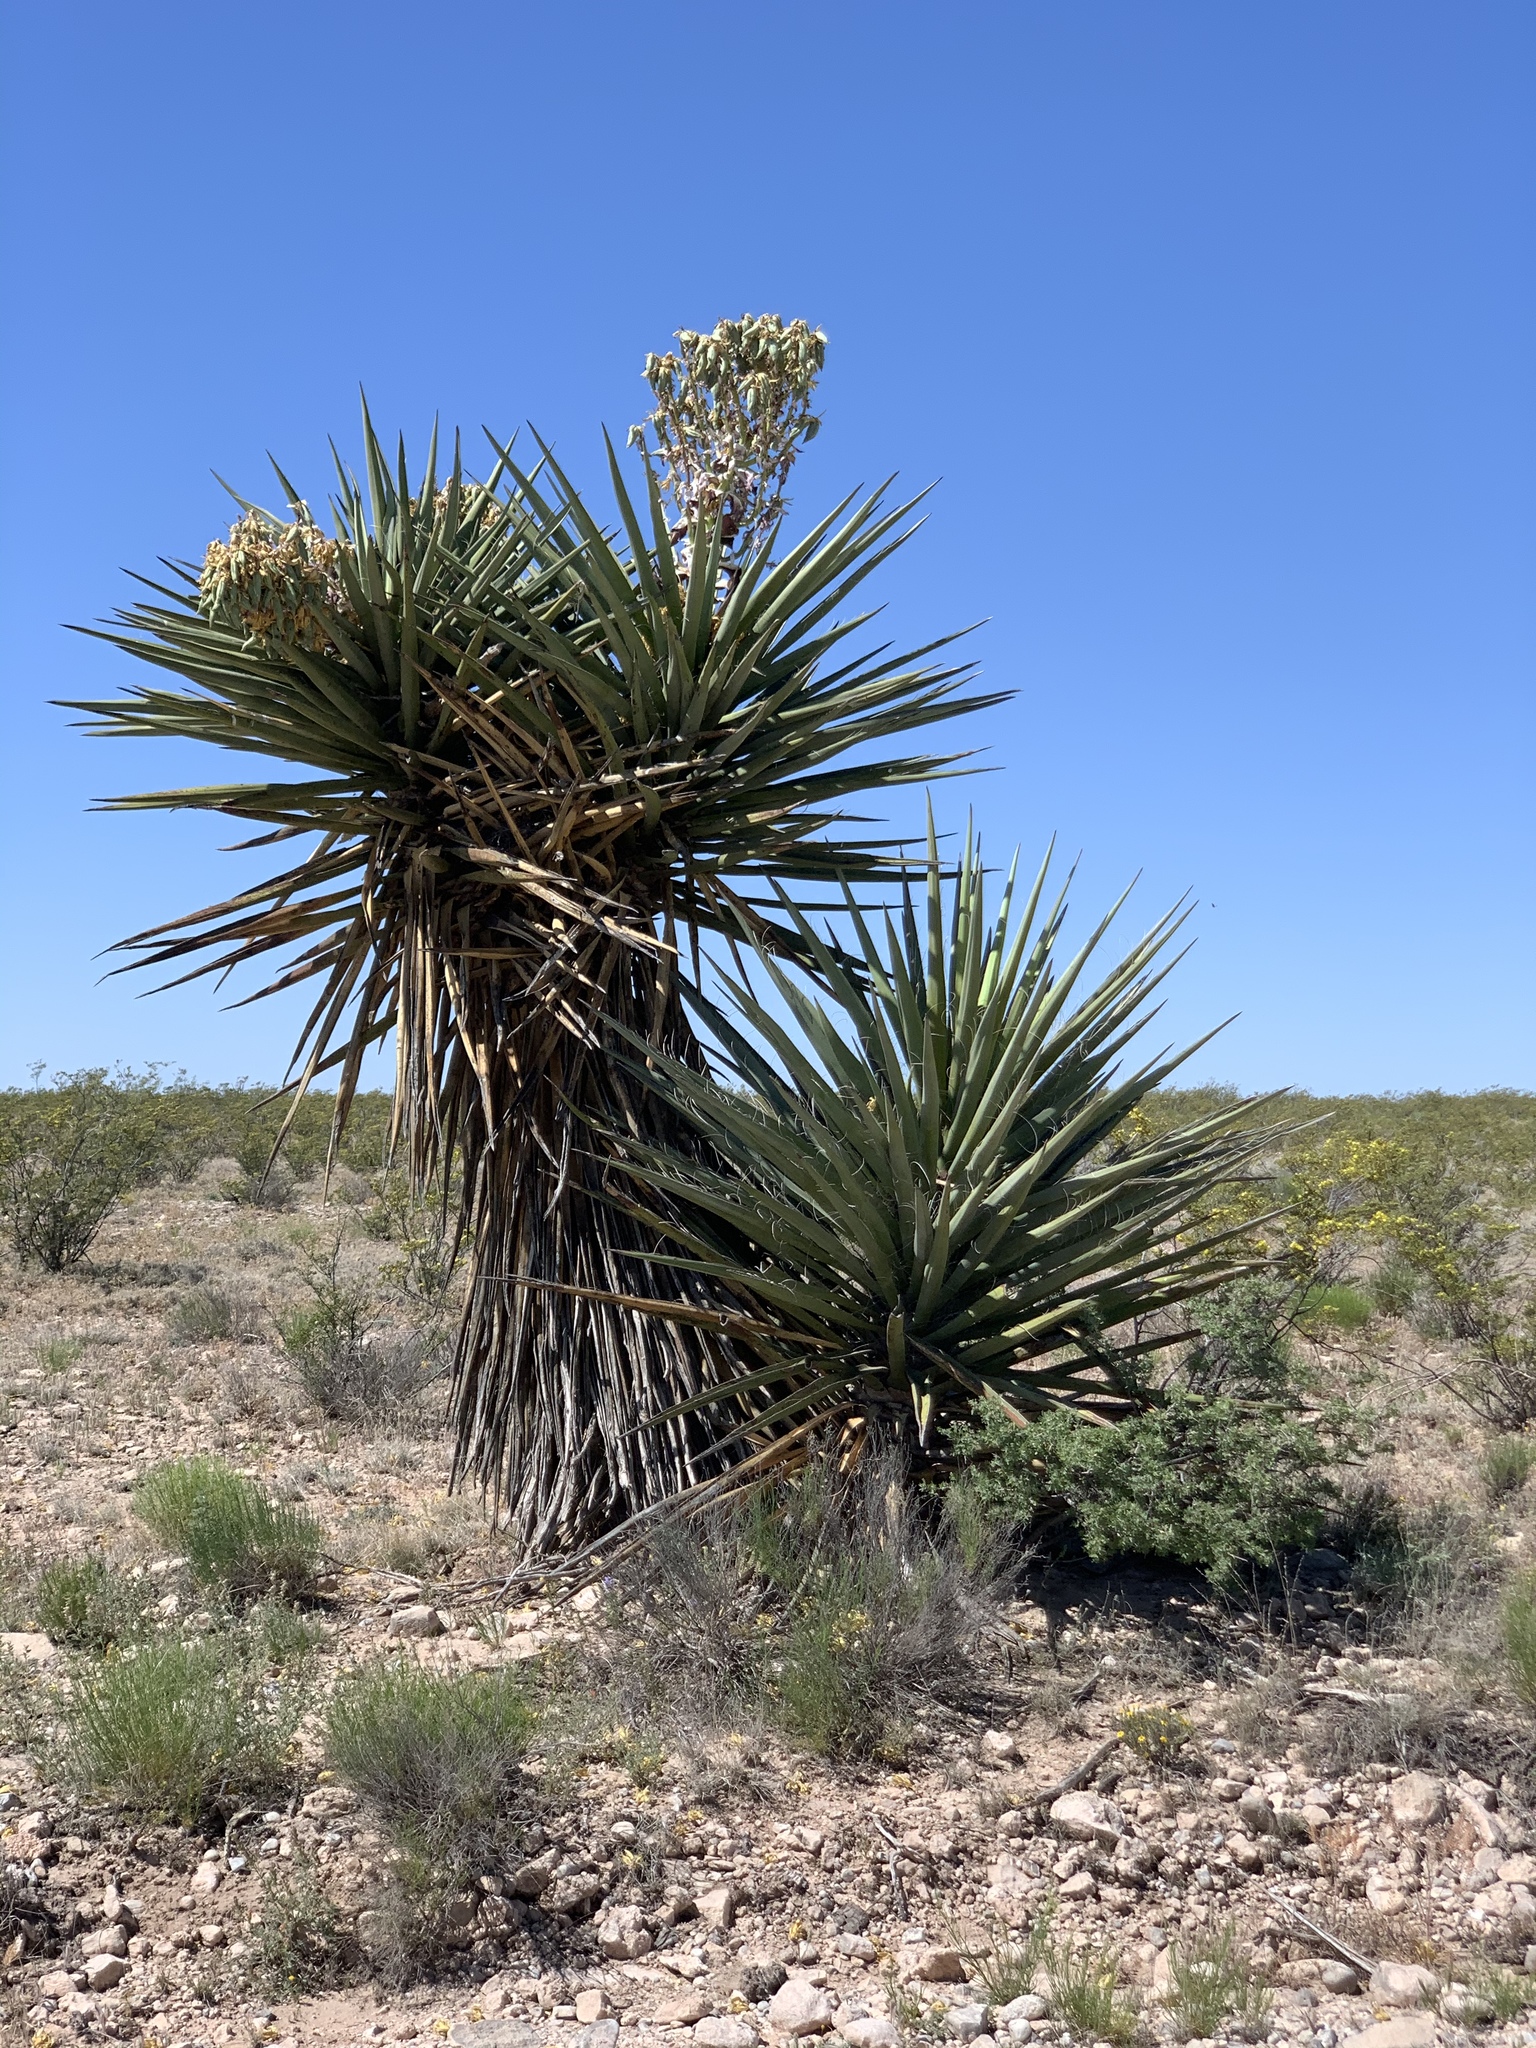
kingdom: Plantae
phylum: Tracheophyta
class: Liliopsida
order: Asparagales
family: Asparagaceae
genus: Yucca
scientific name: Yucca treculiana
